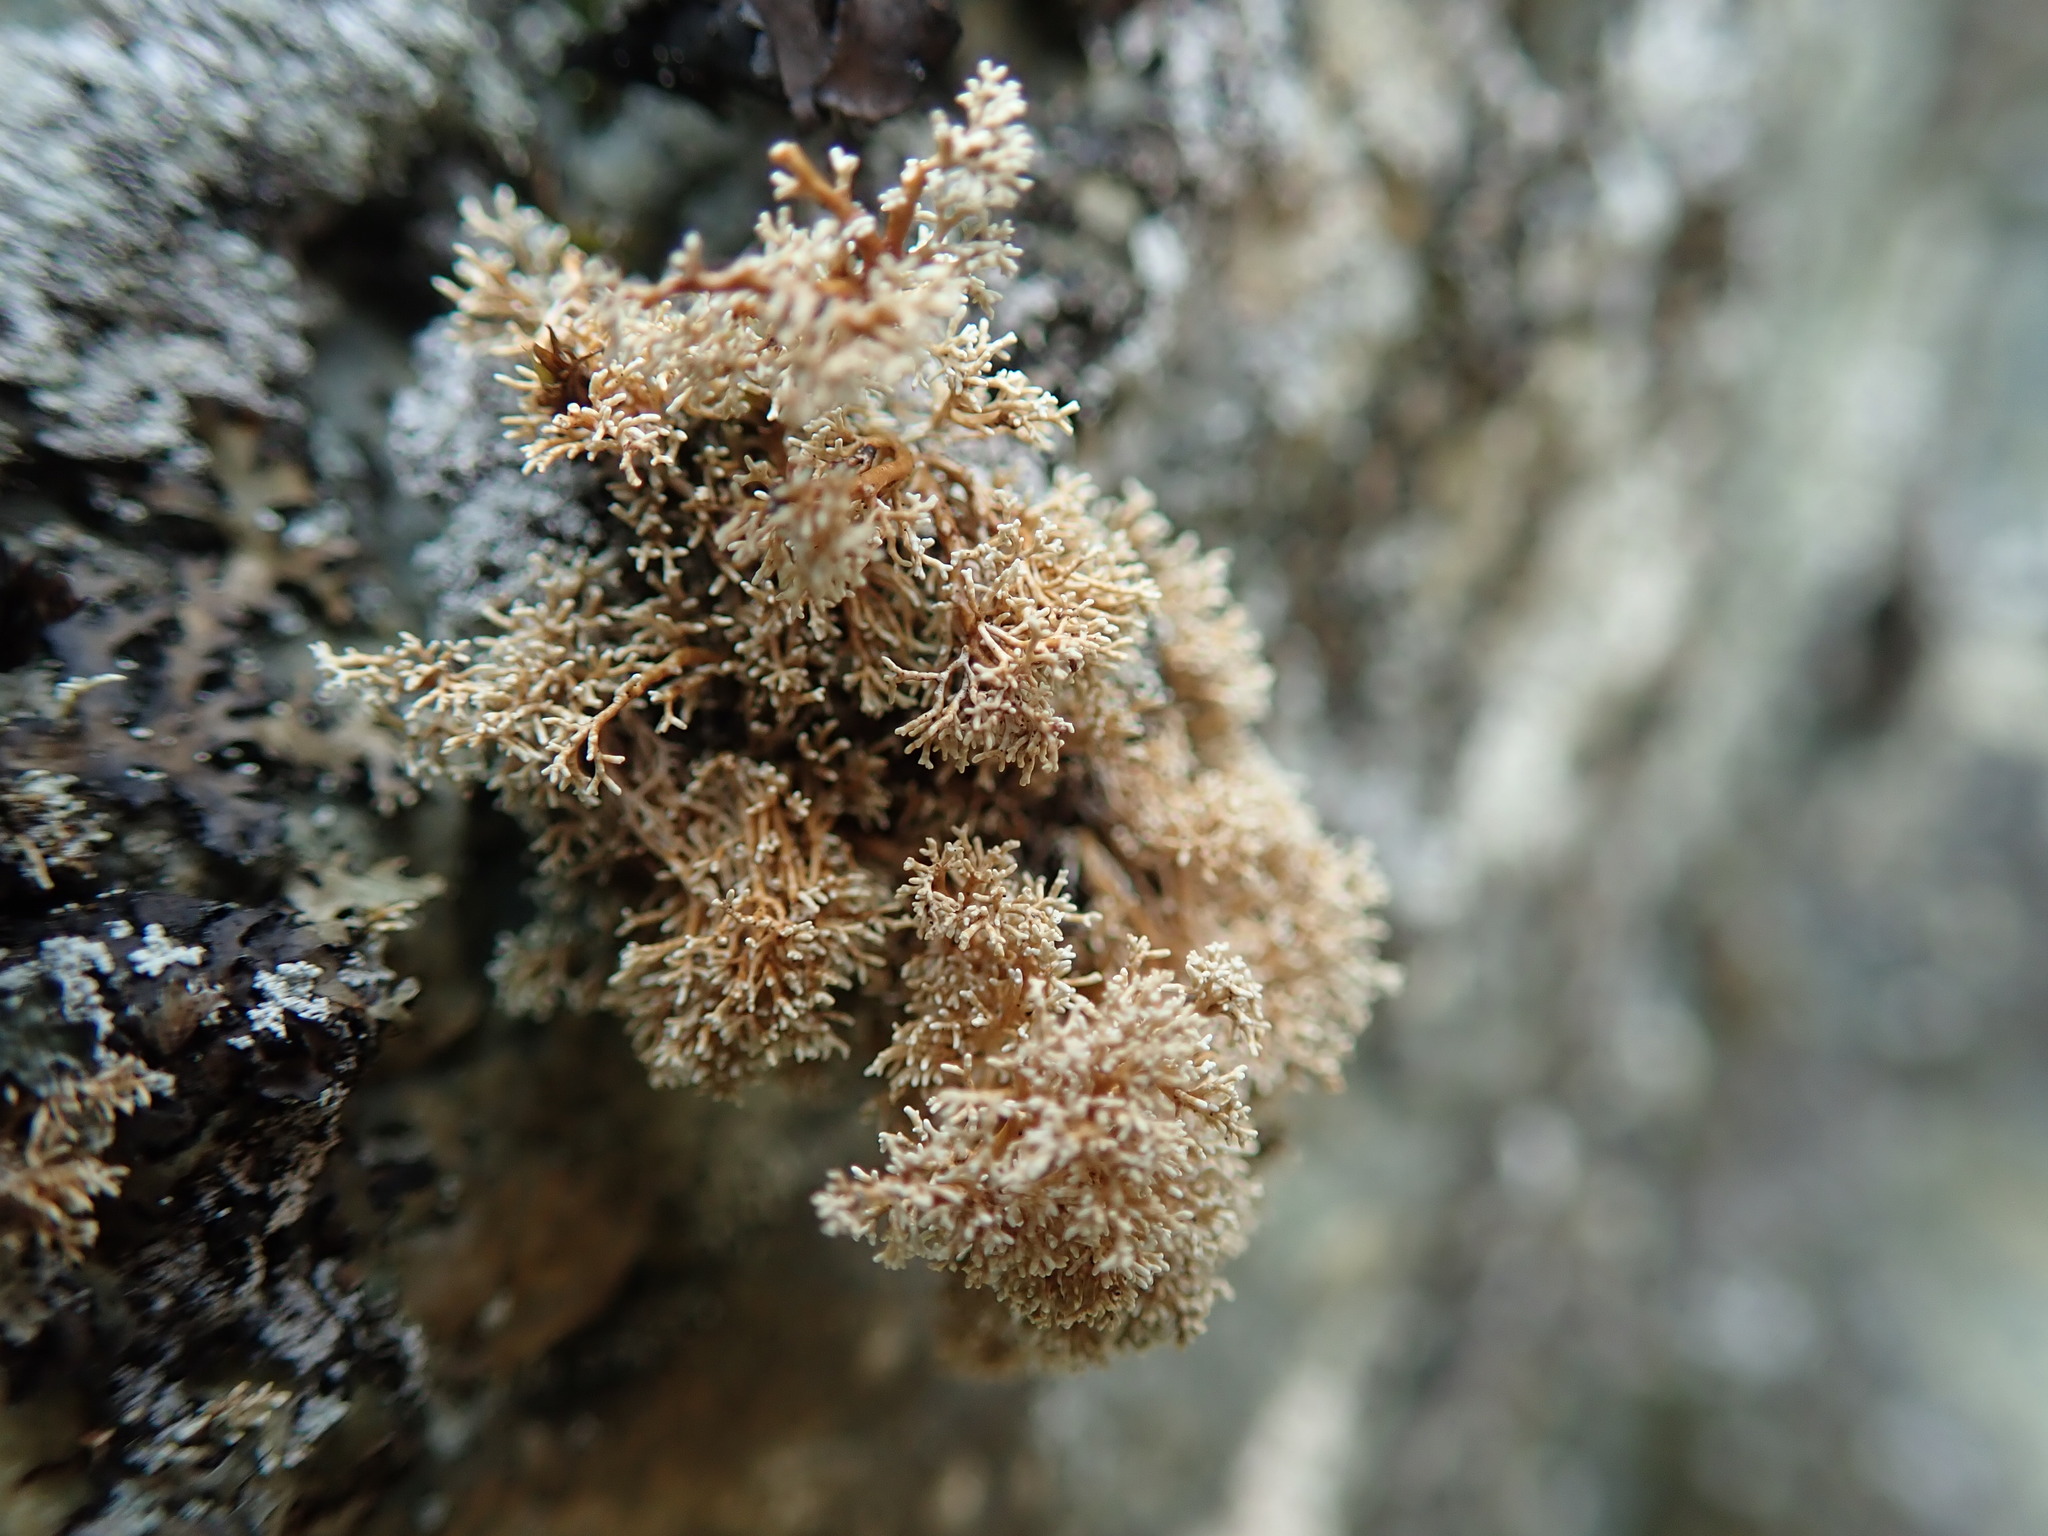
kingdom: Fungi
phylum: Ascomycota
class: Lecanoromycetes
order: Lecanorales
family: Sphaerophoraceae
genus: Sphaerophorus
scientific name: Sphaerophorus globosus
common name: Globe ball lichen
